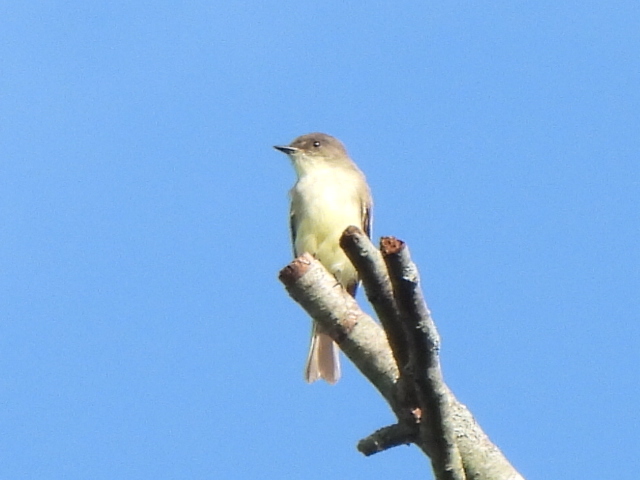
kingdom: Animalia
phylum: Chordata
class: Aves
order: Passeriformes
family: Tyrannidae
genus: Sayornis
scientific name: Sayornis phoebe
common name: Eastern phoebe
